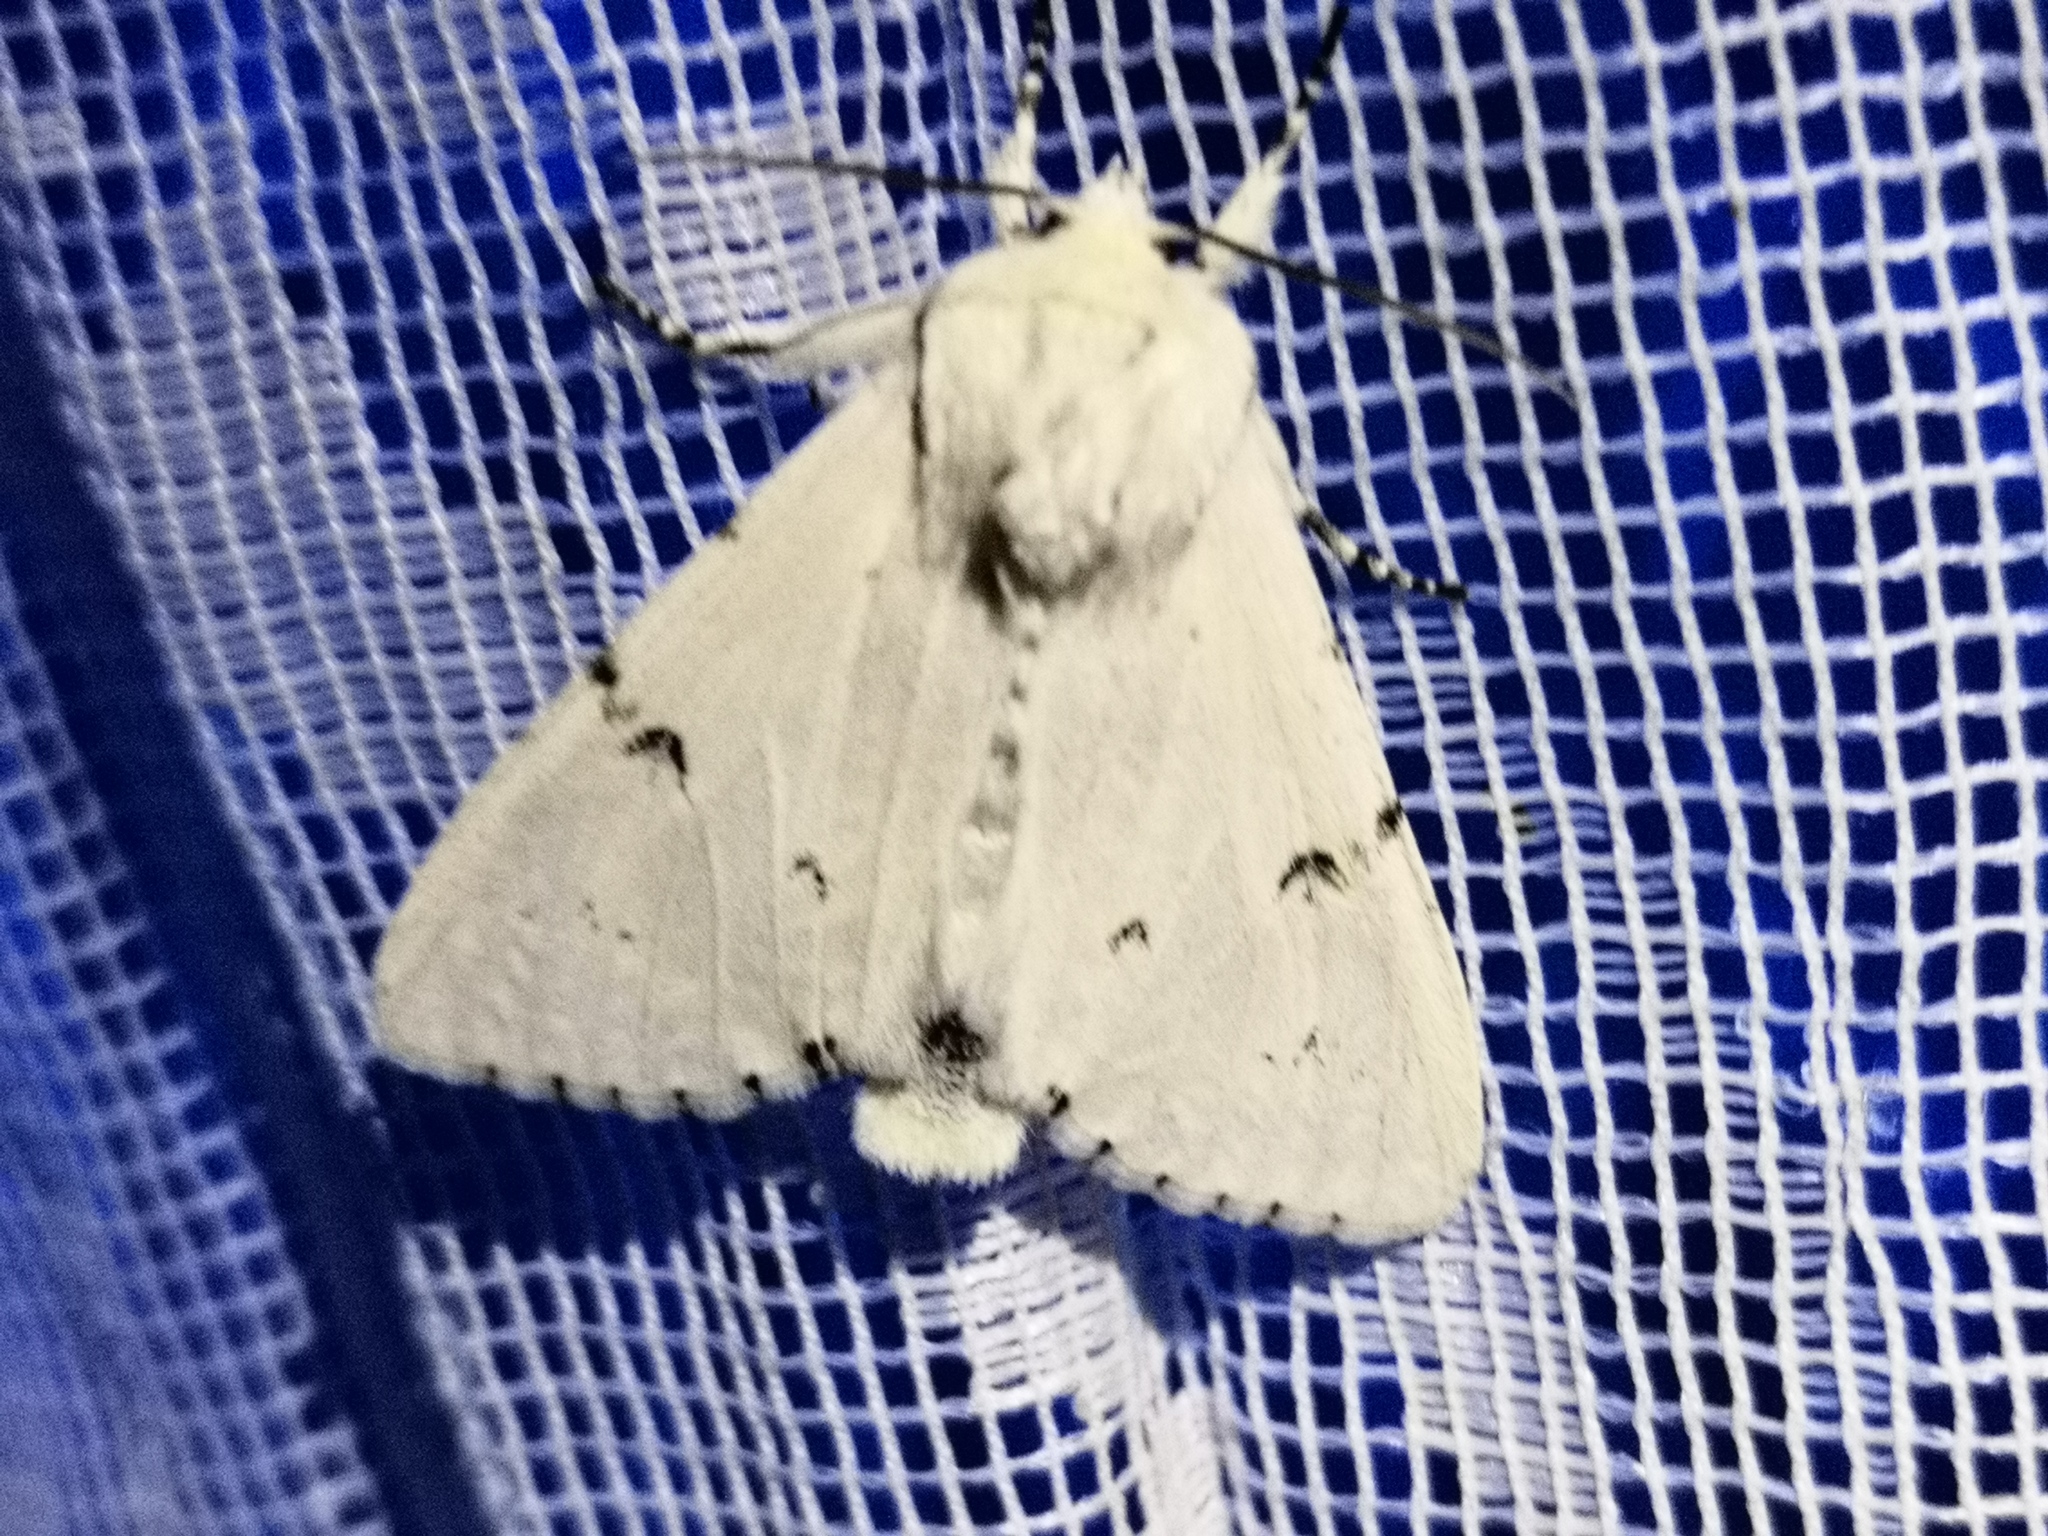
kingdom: Animalia
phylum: Arthropoda
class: Insecta
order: Lepidoptera
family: Noctuidae
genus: Acronicta
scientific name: Acronicta leporina
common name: Miller
